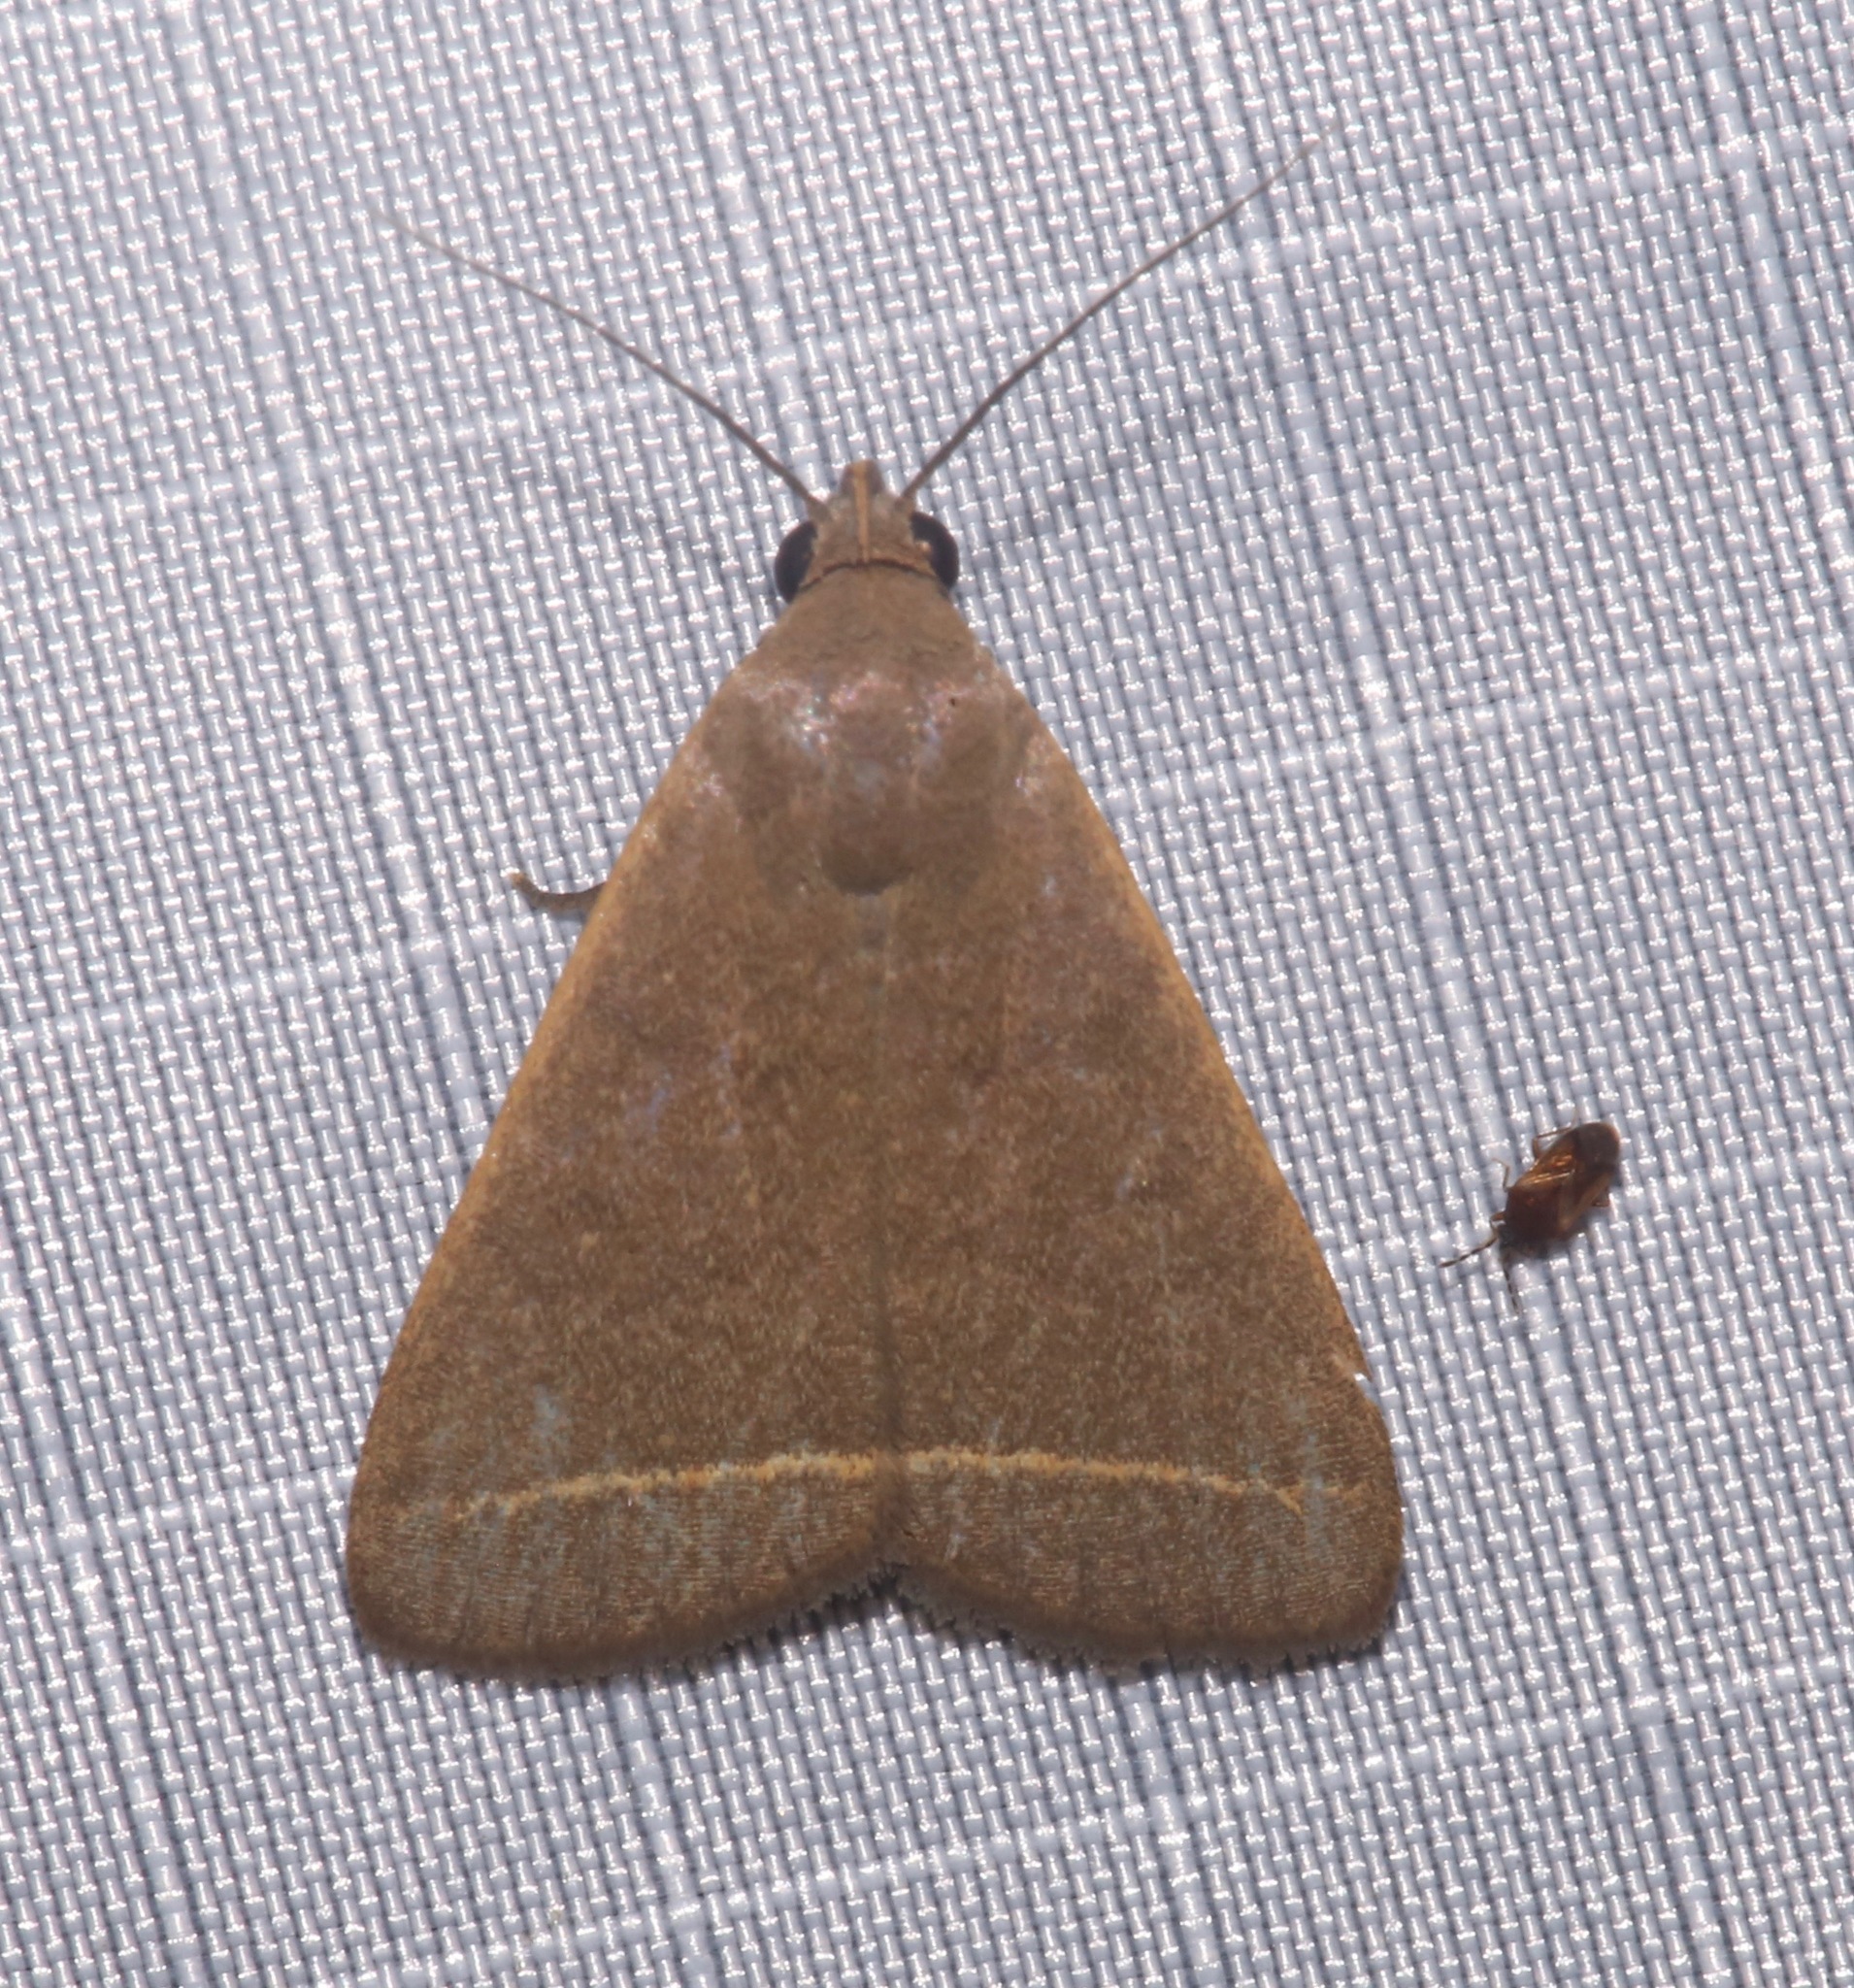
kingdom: Animalia
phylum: Arthropoda
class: Insecta
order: Lepidoptera
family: Erebidae
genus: Simplicia
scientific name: Simplicia cornicalis
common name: Tiki hut litter moth
